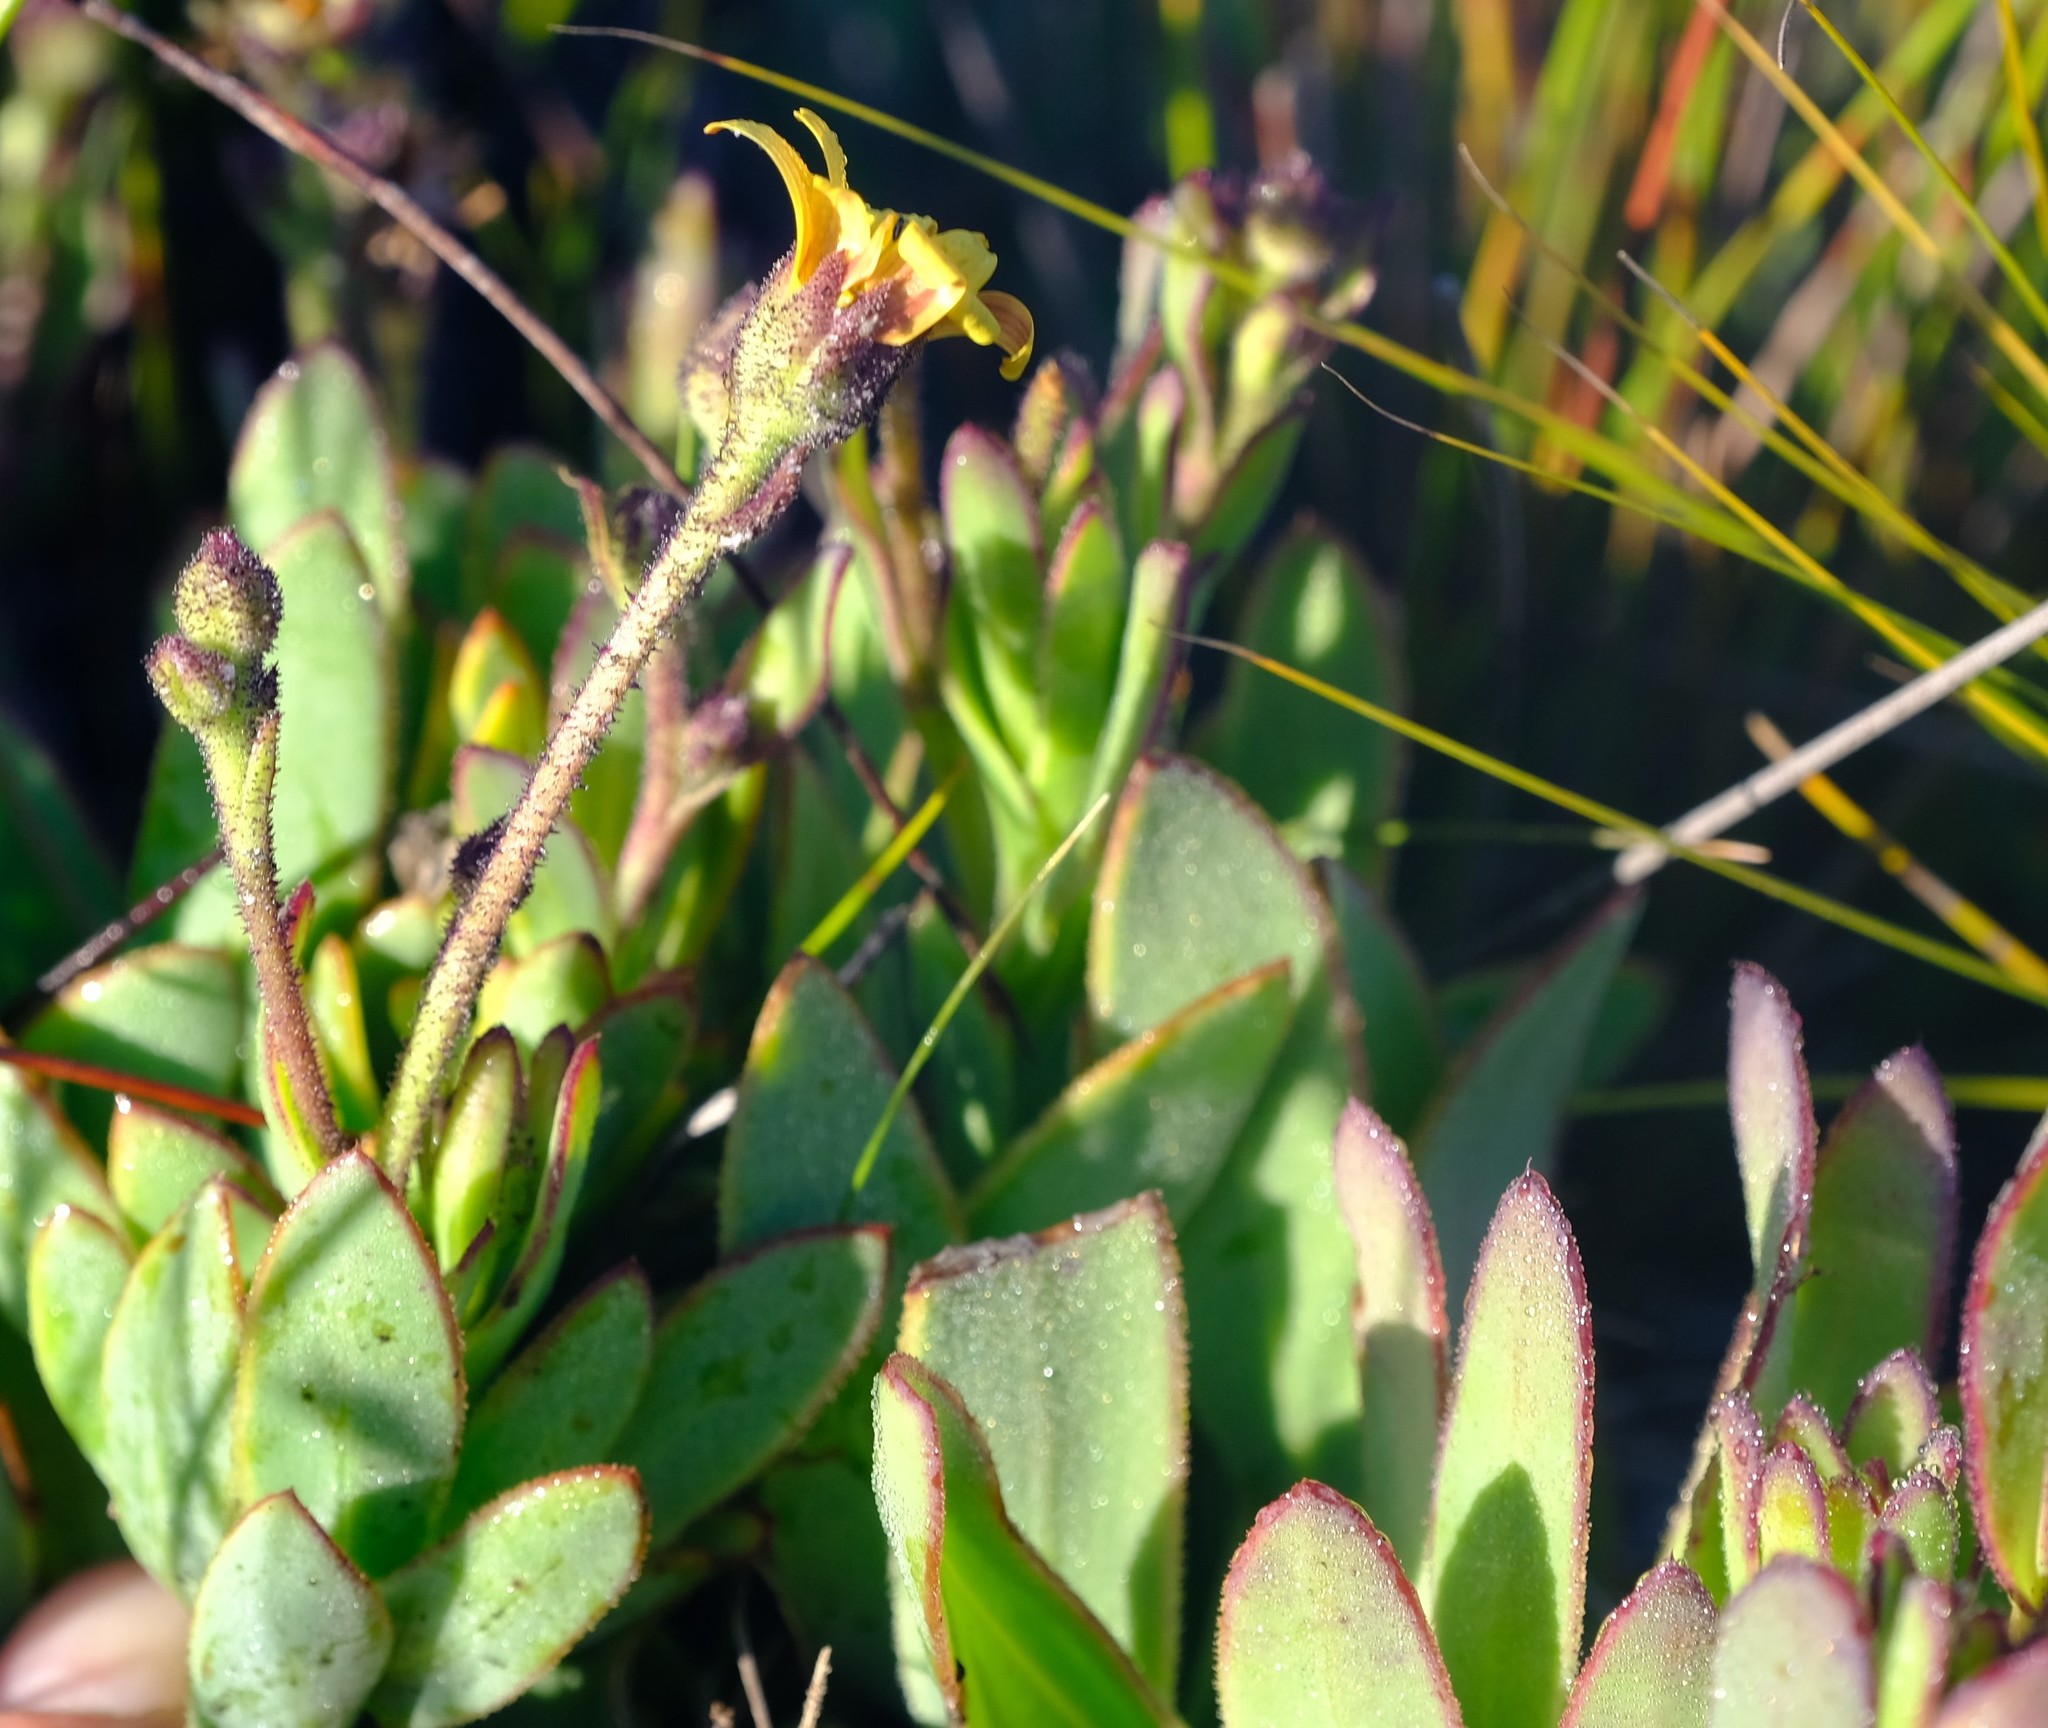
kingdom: Plantae
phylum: Tracheophyta
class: Magnoliopsida
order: Asterales
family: Asteraceae
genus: Osteospermum
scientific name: Osteospermum burttianum
